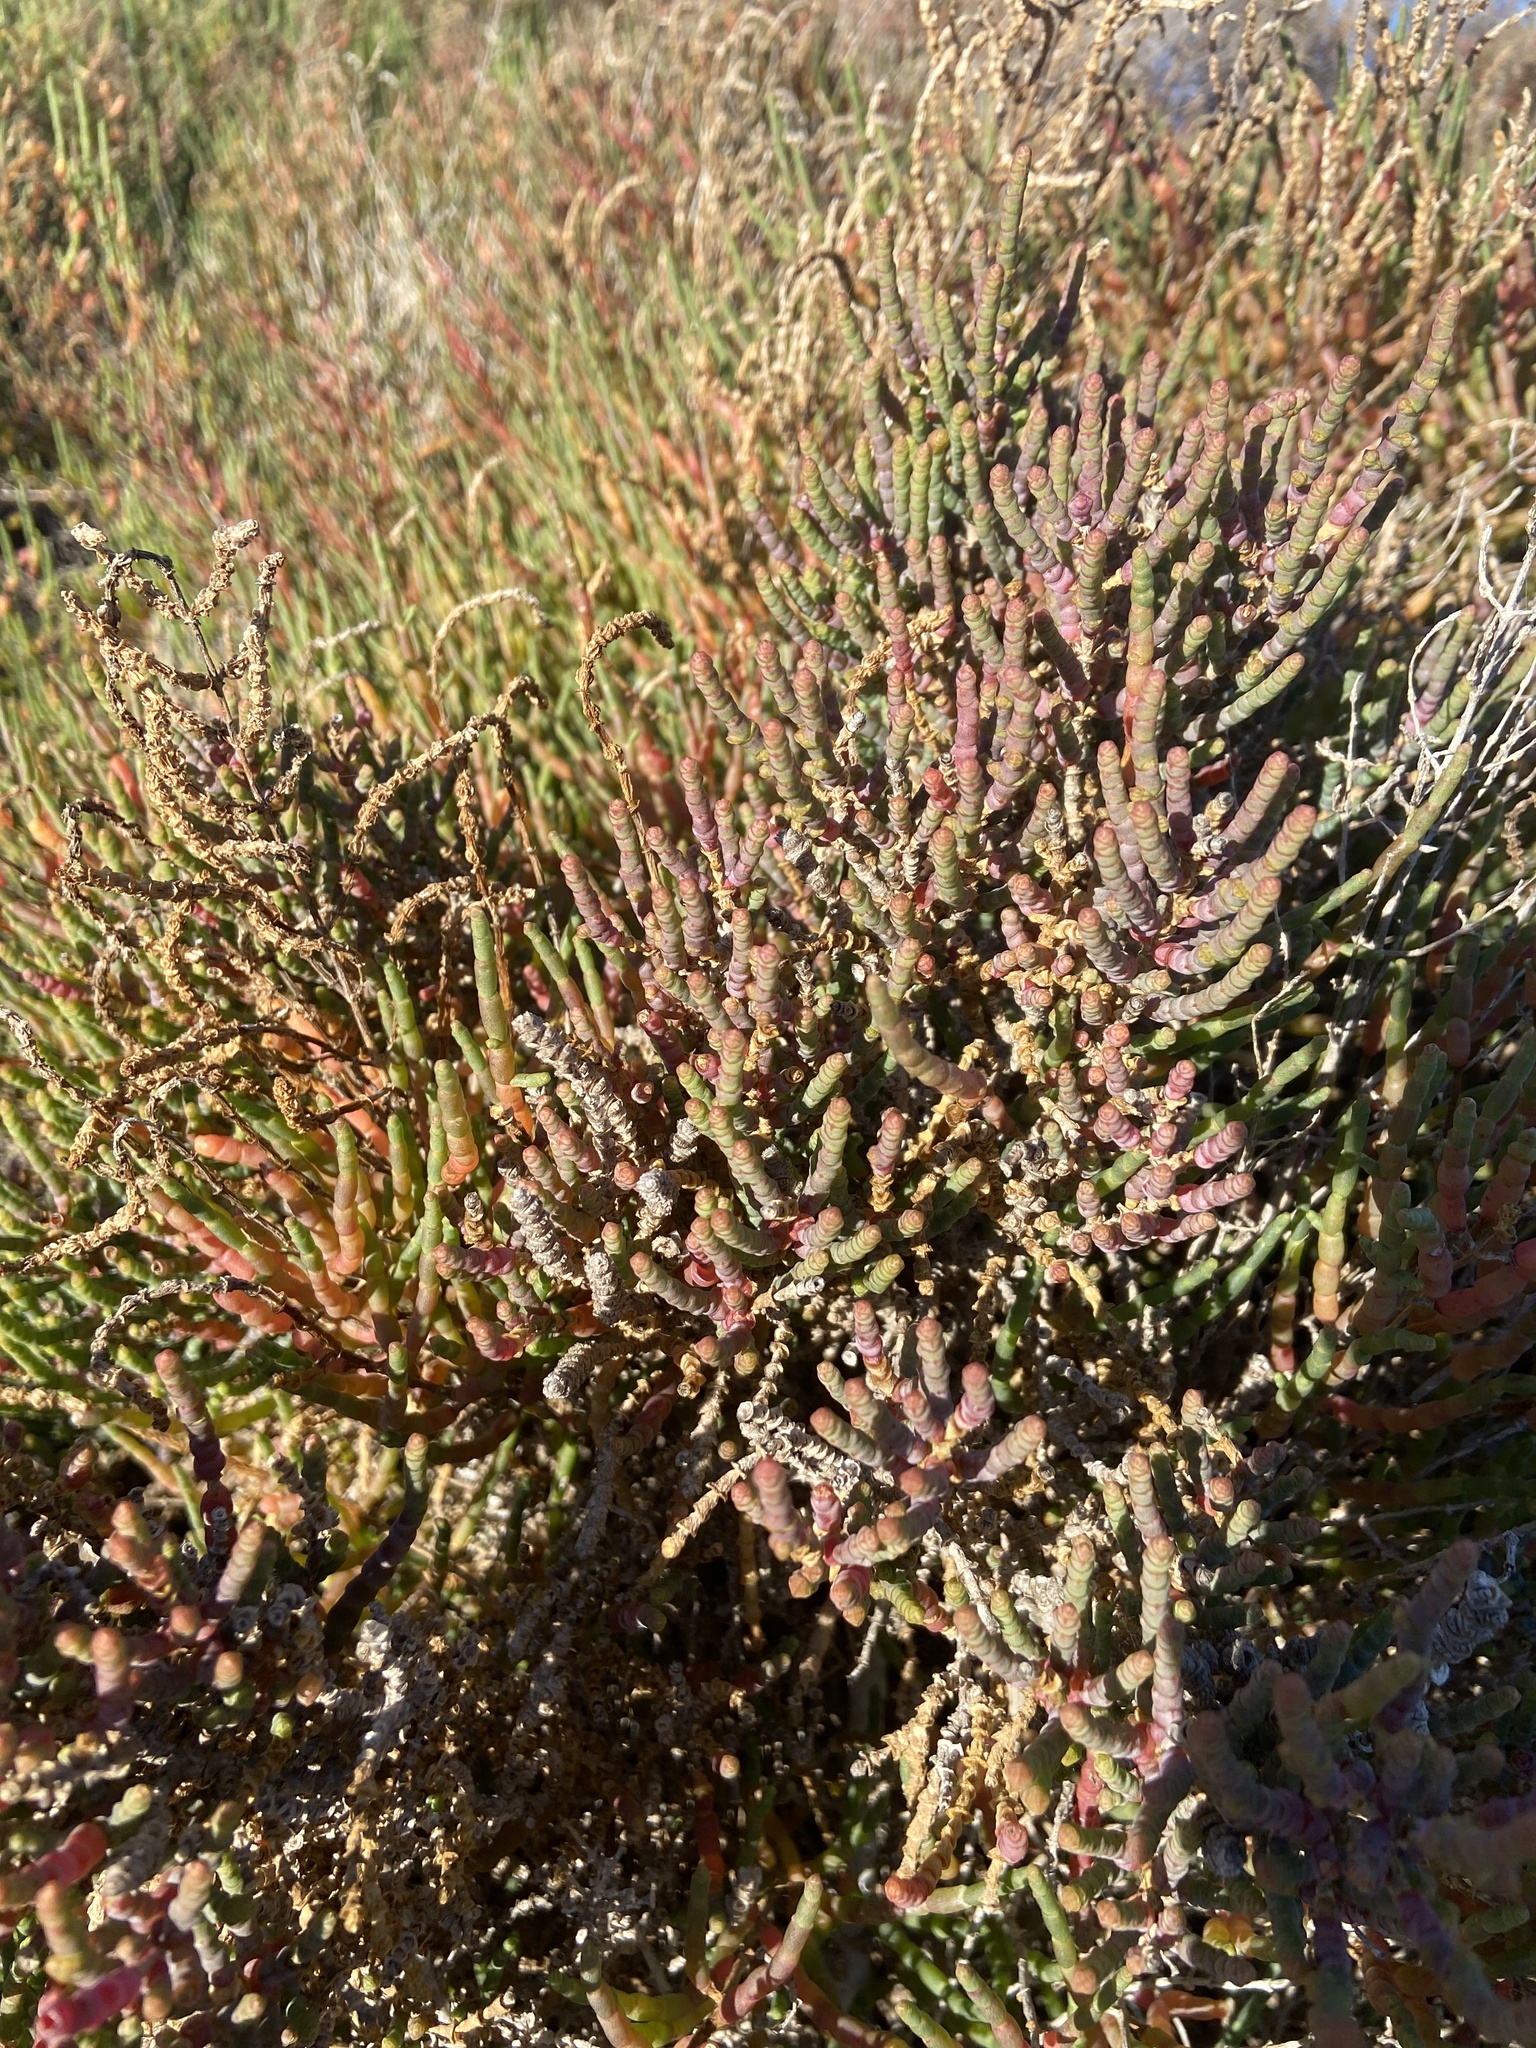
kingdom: Plantae
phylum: Tracheophyta
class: Magnoliopsida
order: Caryophyllales
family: Amaranthaceae
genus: Arthrocaulon
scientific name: Arthrocaulon macrostachyum
